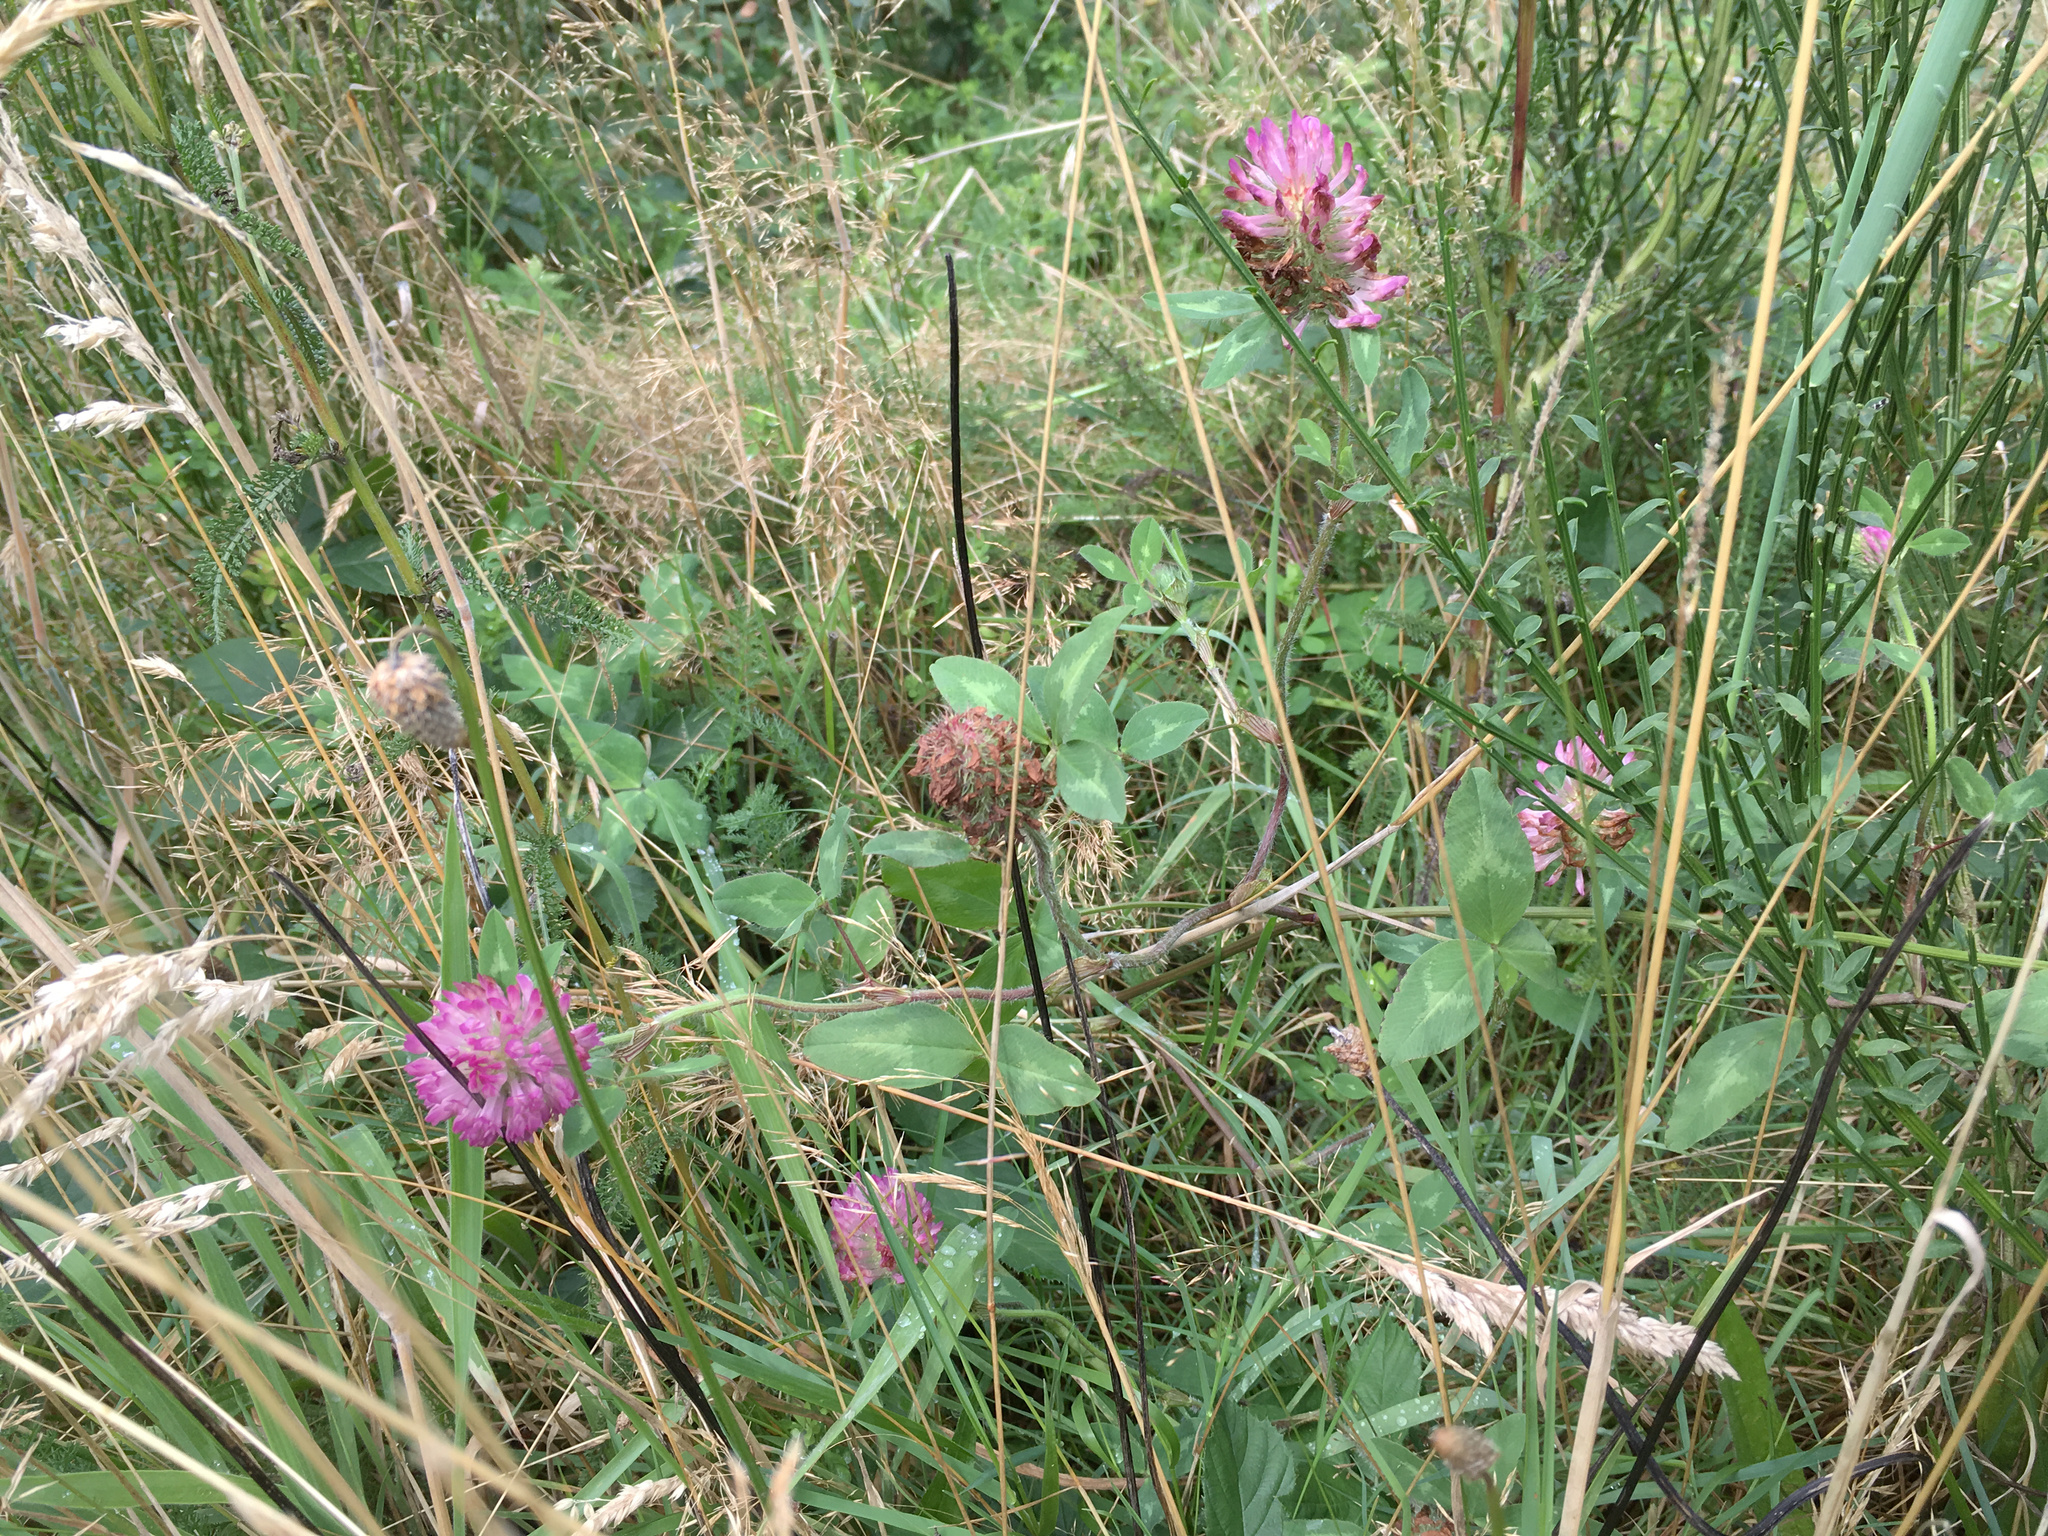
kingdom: Plantae
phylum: Tracheophyta
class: Magnoliopsida
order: Fabales
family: Fabaceae
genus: Trifolium
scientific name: Trifolium pratense
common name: Red clover
